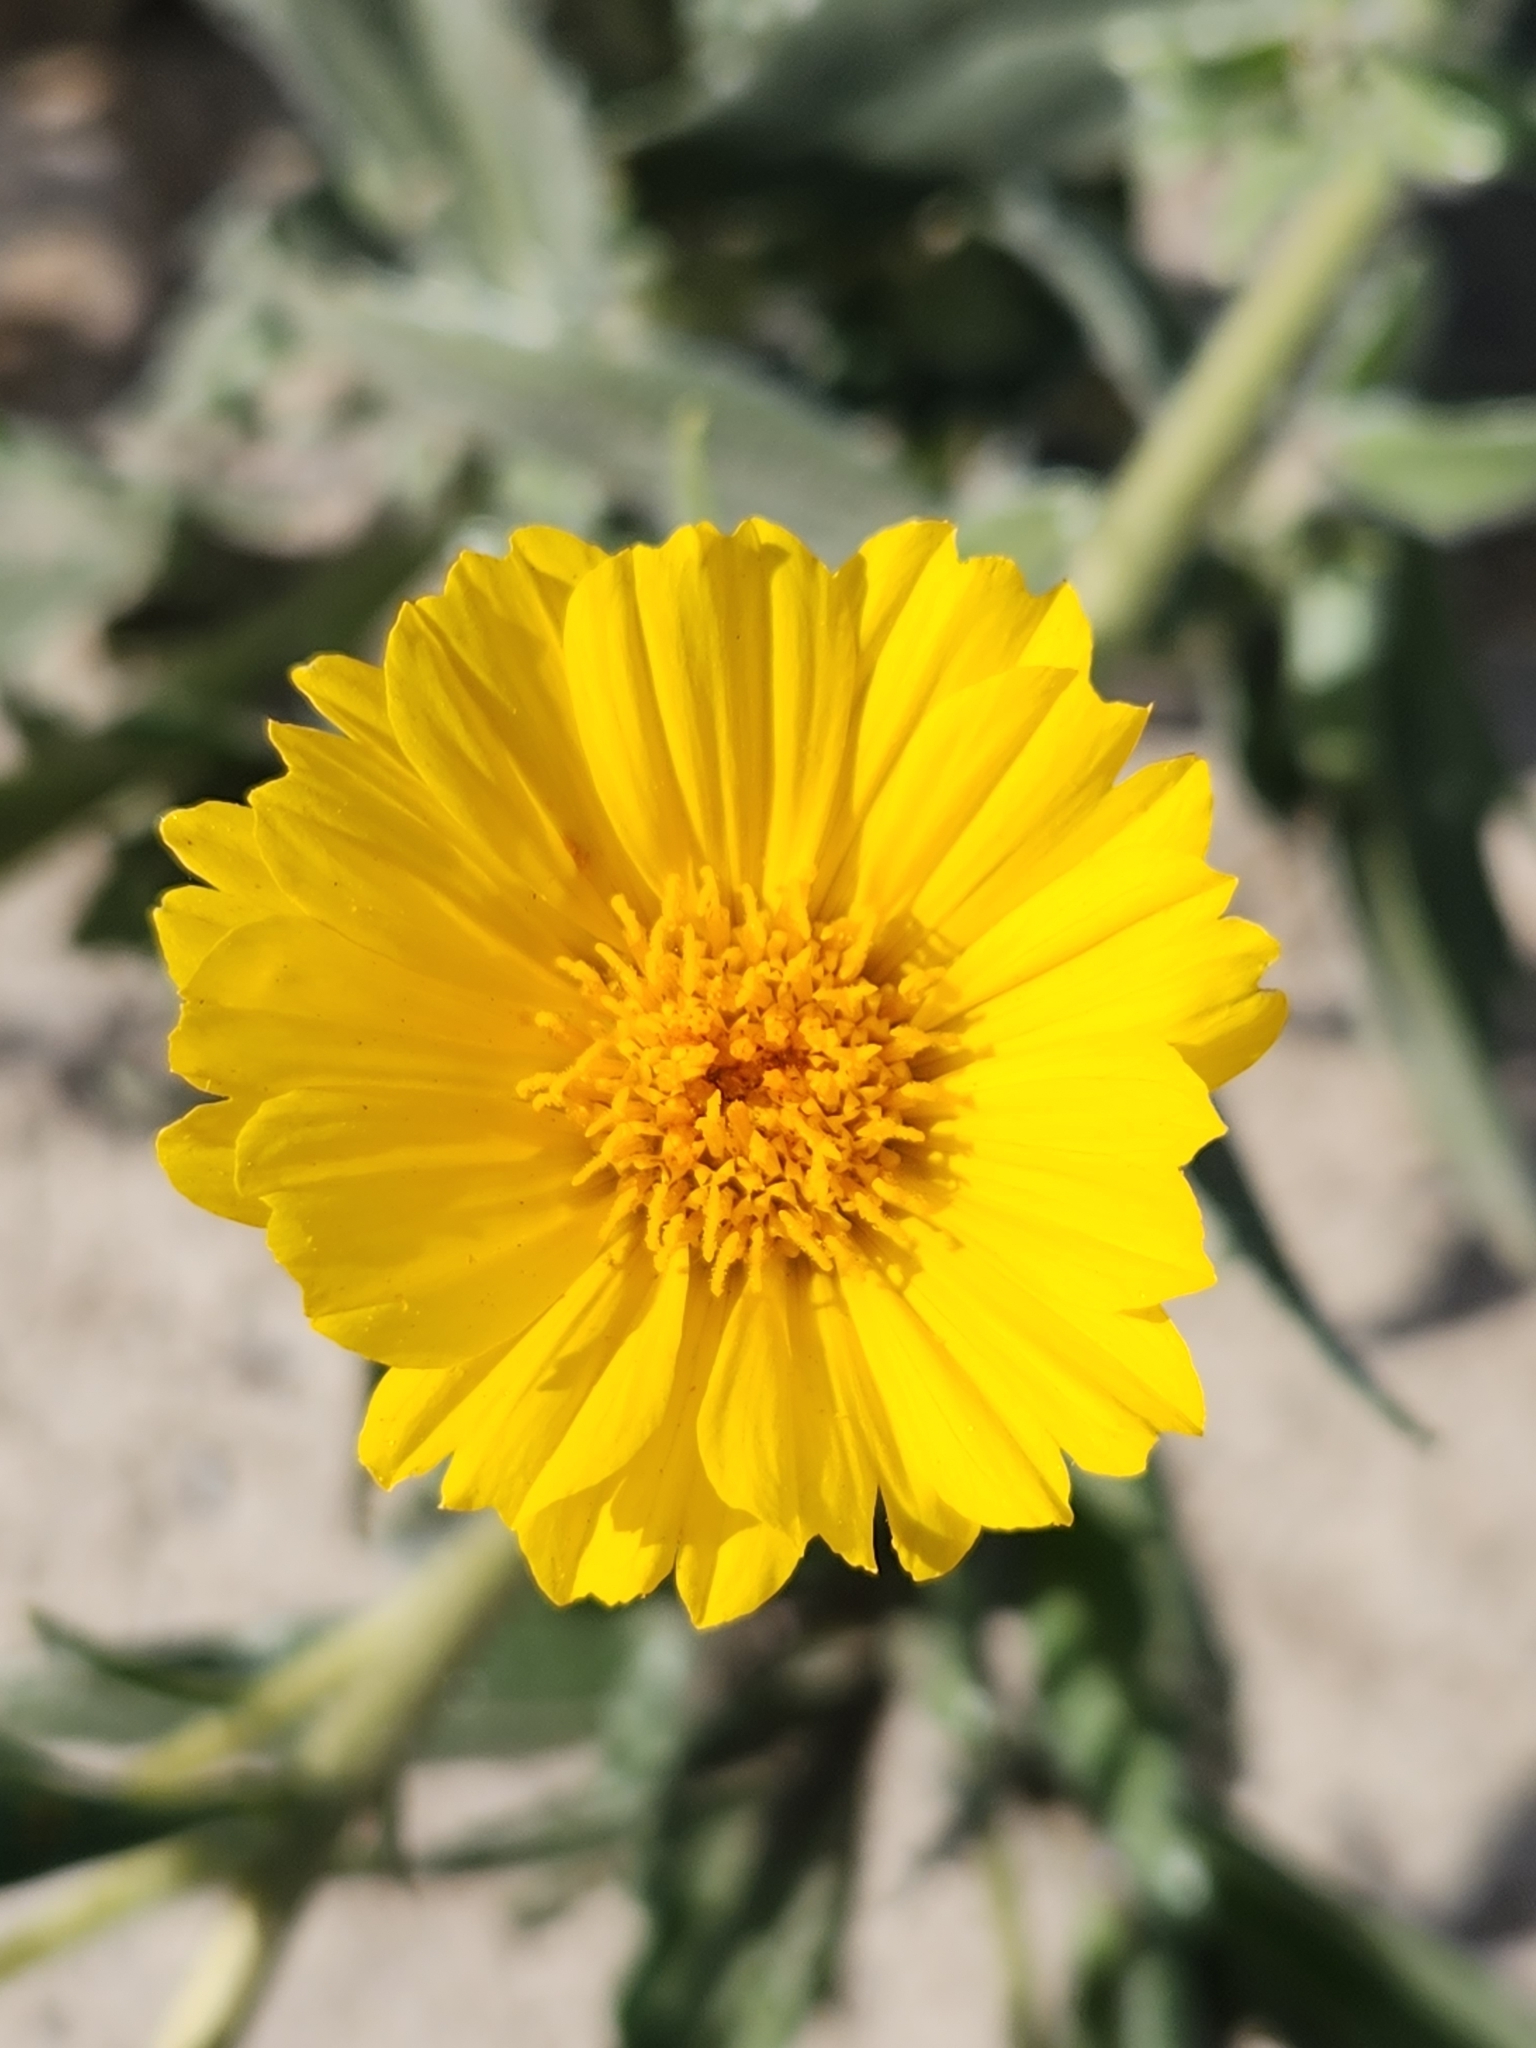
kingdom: Plantae
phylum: Tracheophyta
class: Magnoliopsida
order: Asterales
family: Asteraceae
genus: Geraea
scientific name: Geraea canescens
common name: Desert-gold
